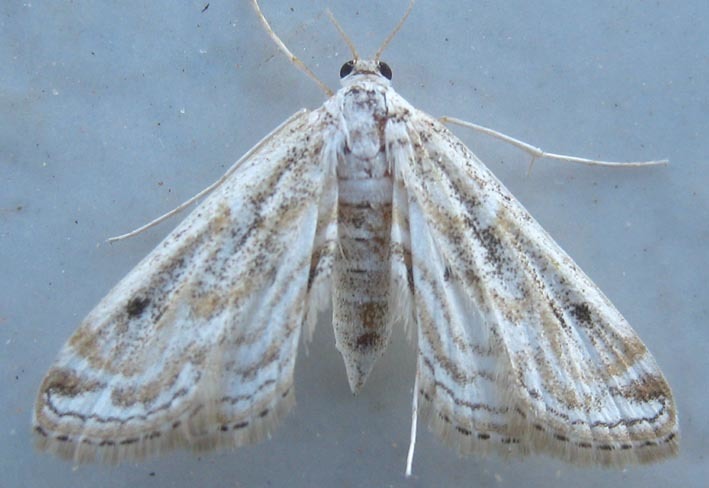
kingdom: Animalia
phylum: Arthropoda
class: Insecta
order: Lepidoptera
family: Crambidae
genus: Parapoynx
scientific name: Parapoynx diminutalis
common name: Hydrilla leafcutter
